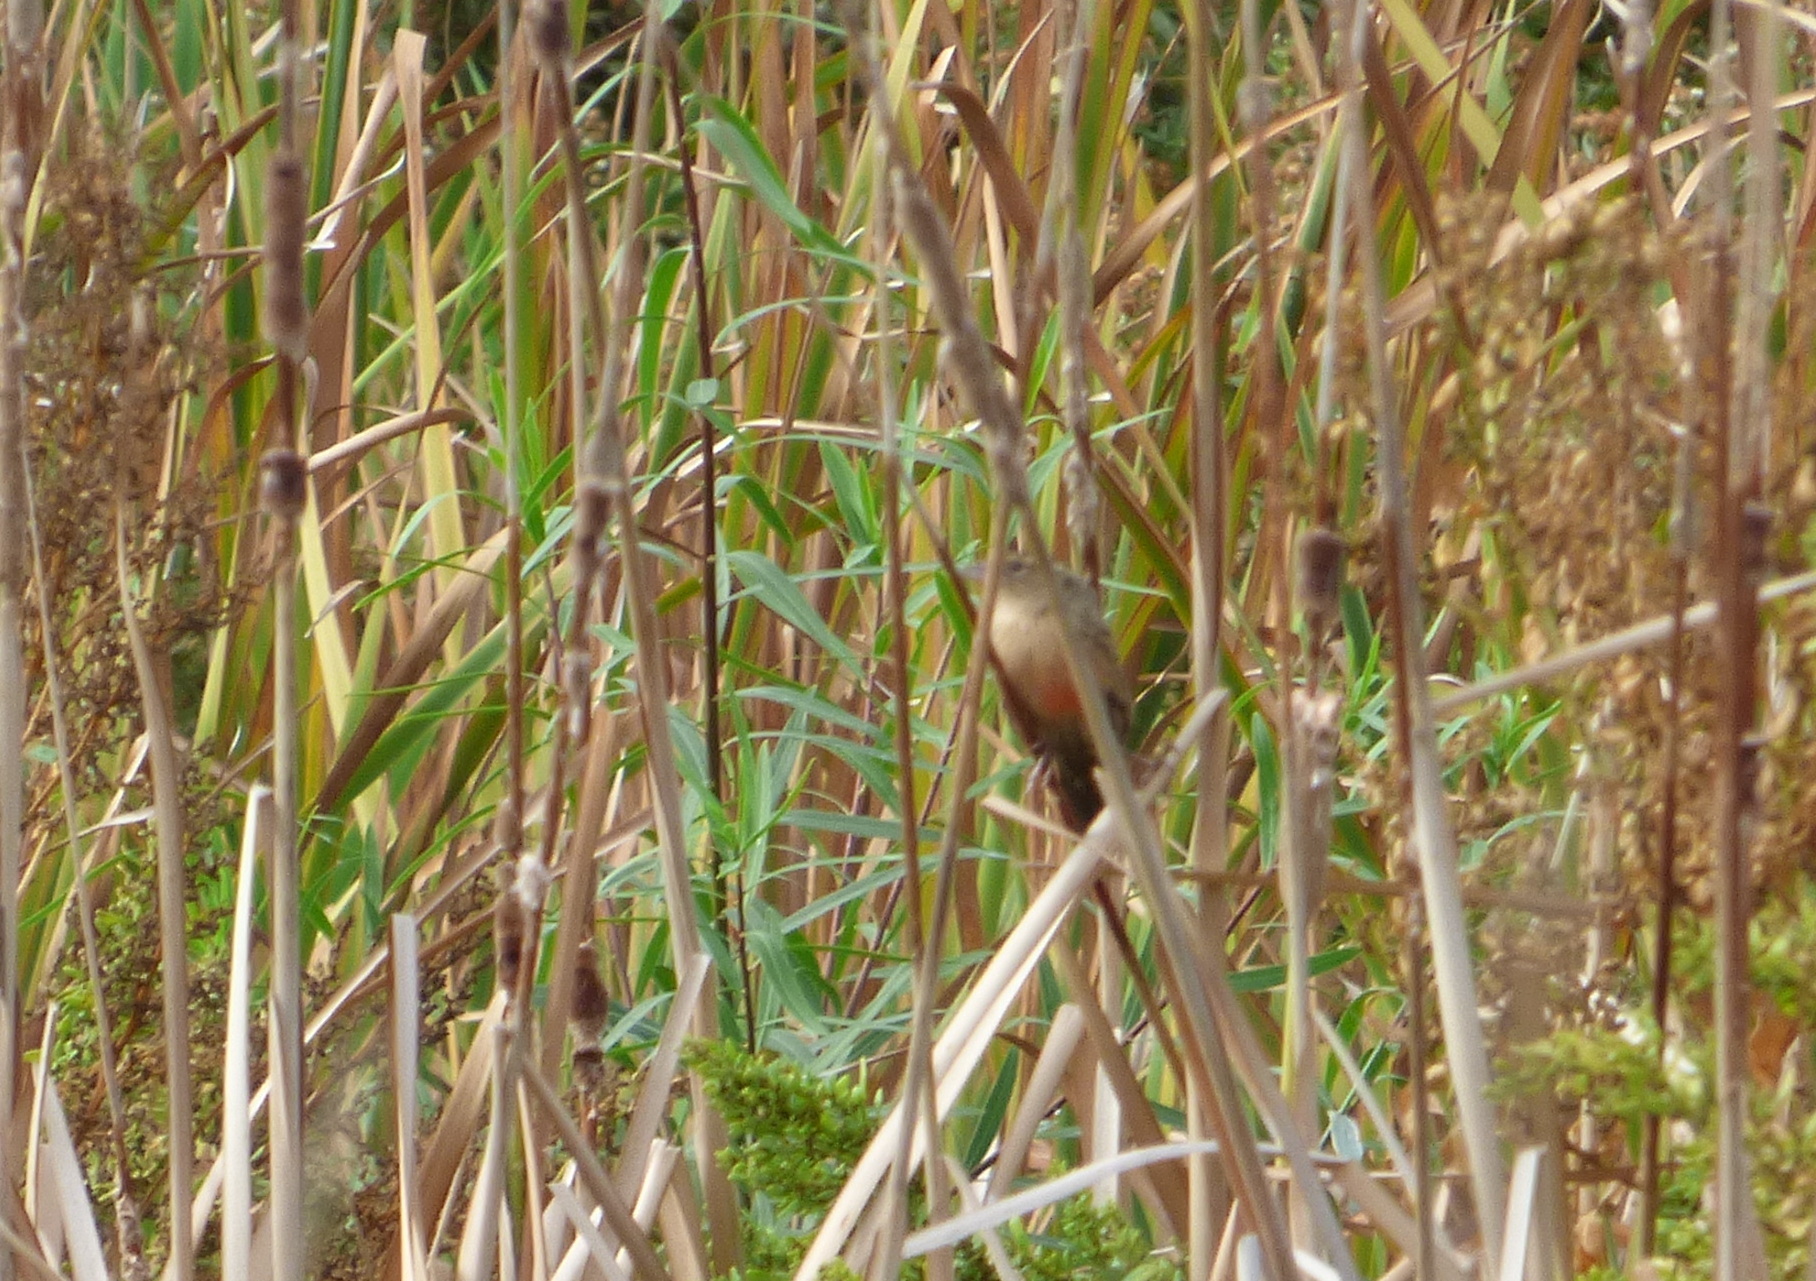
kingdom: Animalia
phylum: Chordata
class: Aves
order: Passeriformes
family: Icteridae
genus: Sturnella
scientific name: Sturnella superciliaris
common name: White-browed blackbird
